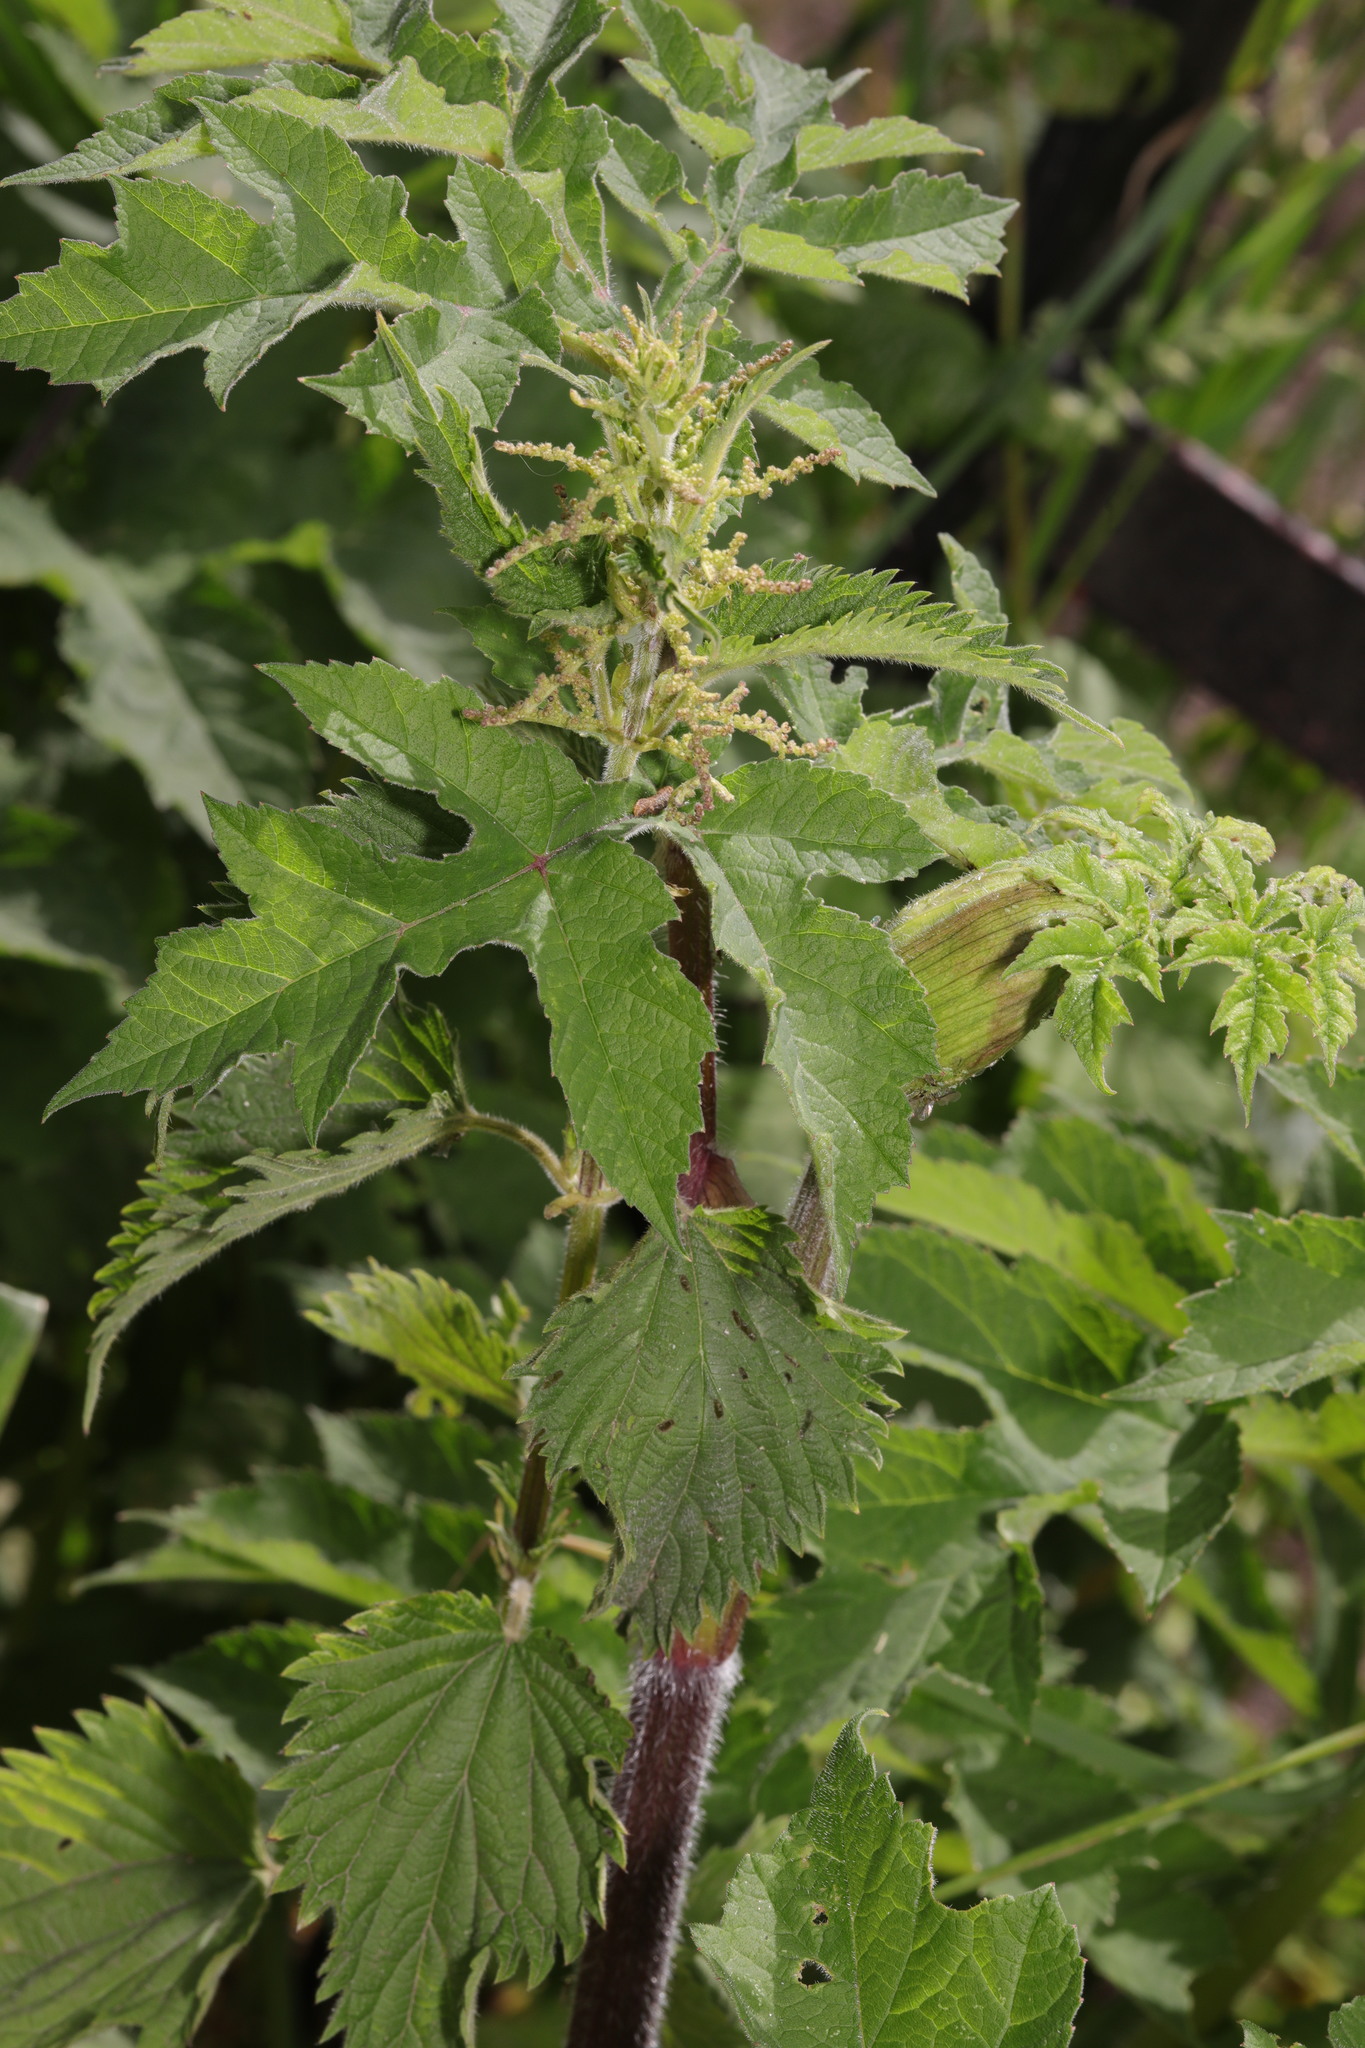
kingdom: Plantae
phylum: Tracheophyta
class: Magnoliopsida
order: Rosales
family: Urticaceae
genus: Urtica
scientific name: Urtica dioica
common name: Common nettle
